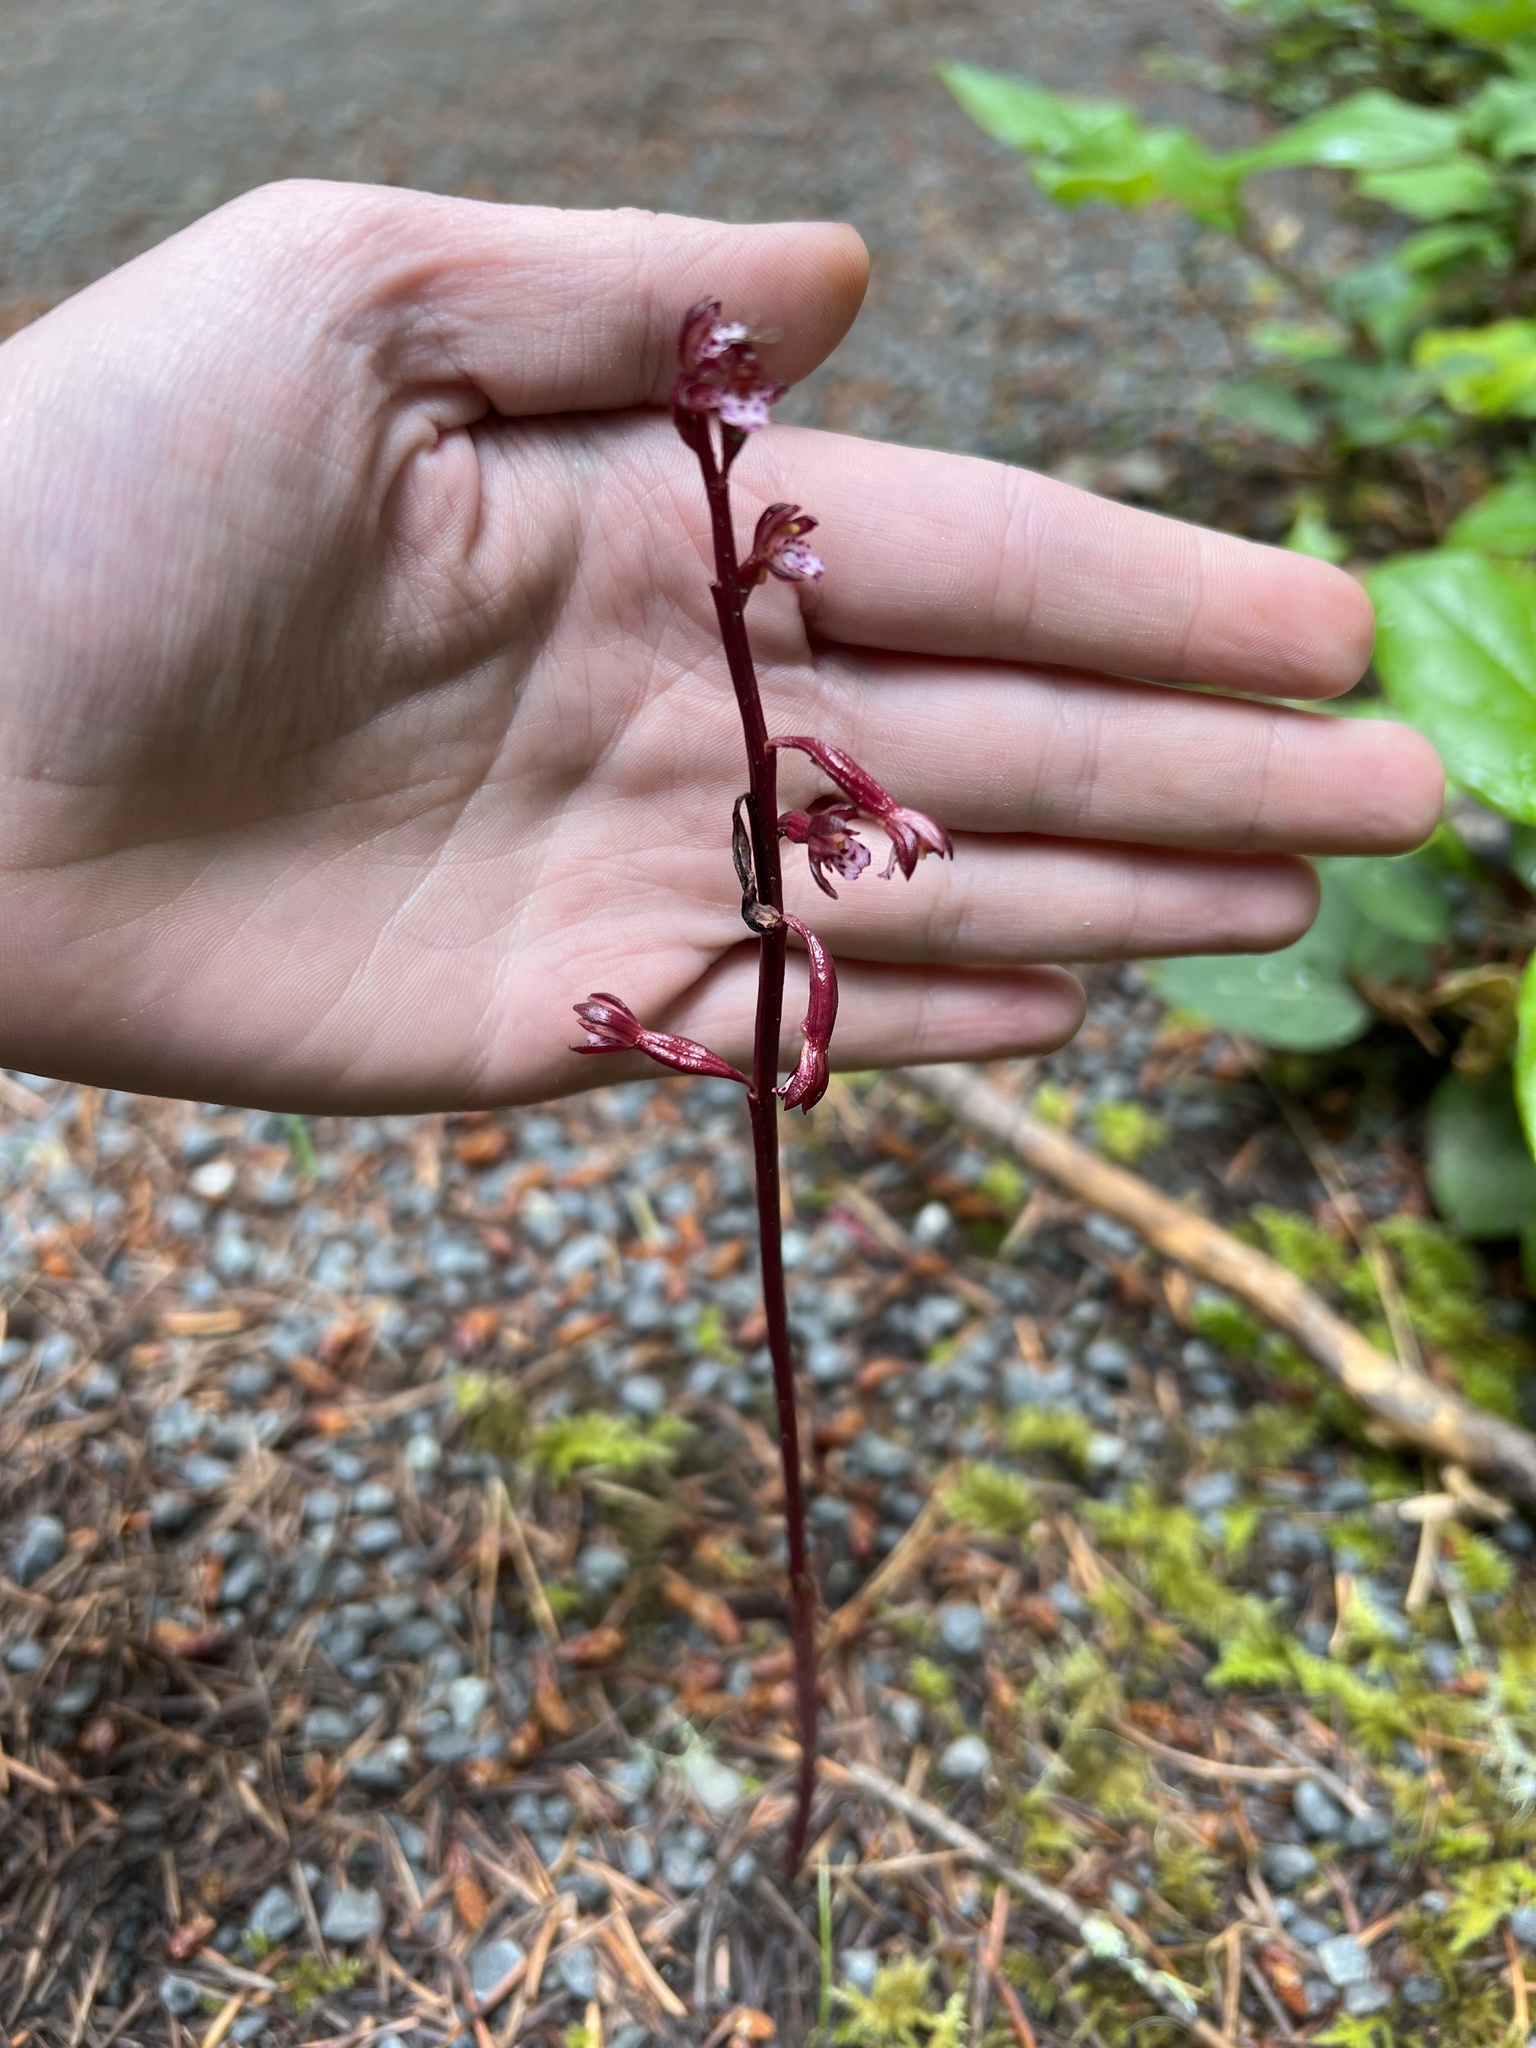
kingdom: Plantae
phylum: Tracheophyta
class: Liliopsida
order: Asparagales
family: Orchidaceae
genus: Corallorhiza
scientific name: Corallorhiza maculata
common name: Spotted coralroot
